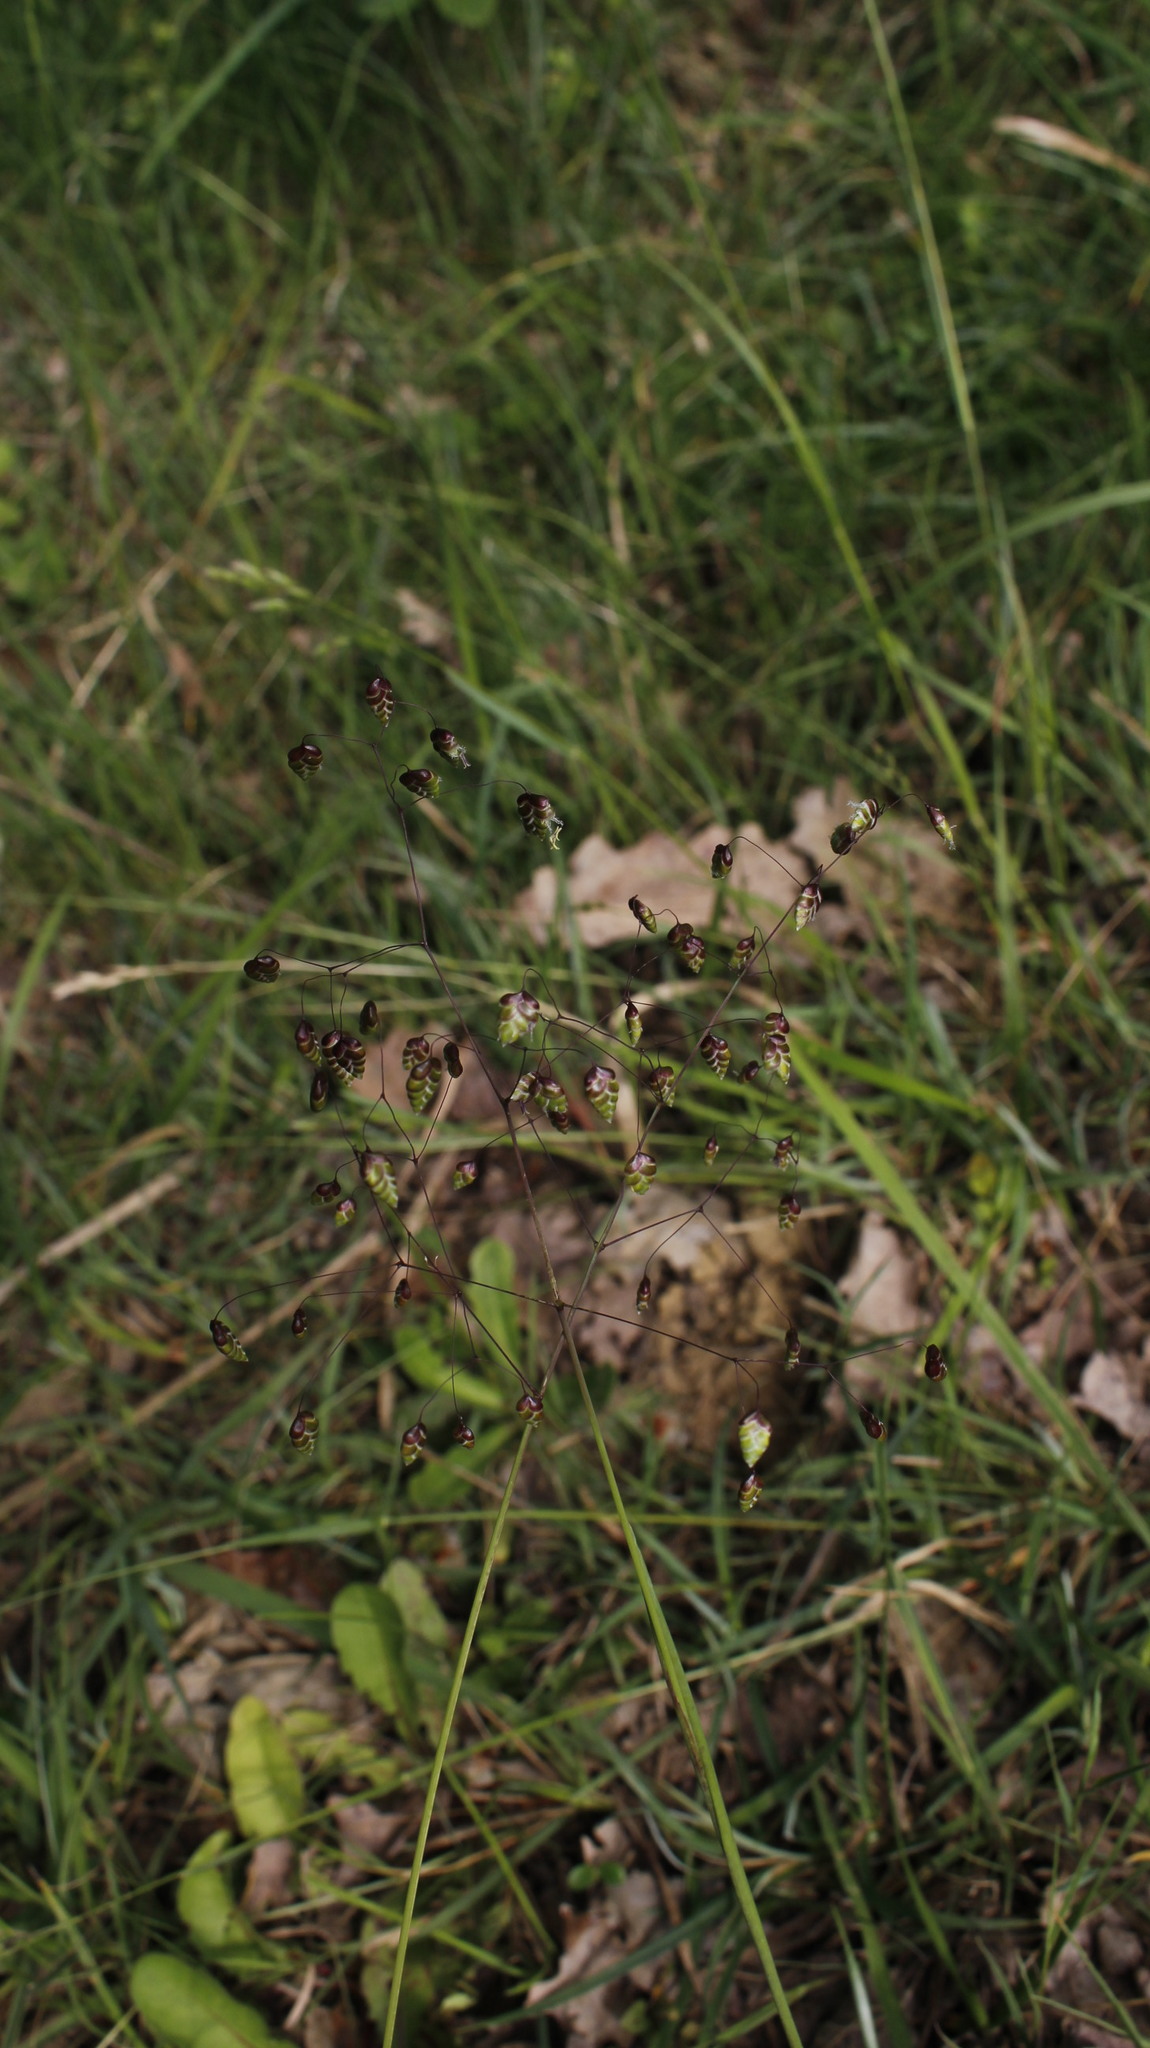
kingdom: Plantae
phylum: Tracheophyta
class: Liliopsida
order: Poales
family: Poaceae
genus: Briza
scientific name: Briza media
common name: Quaking grass
